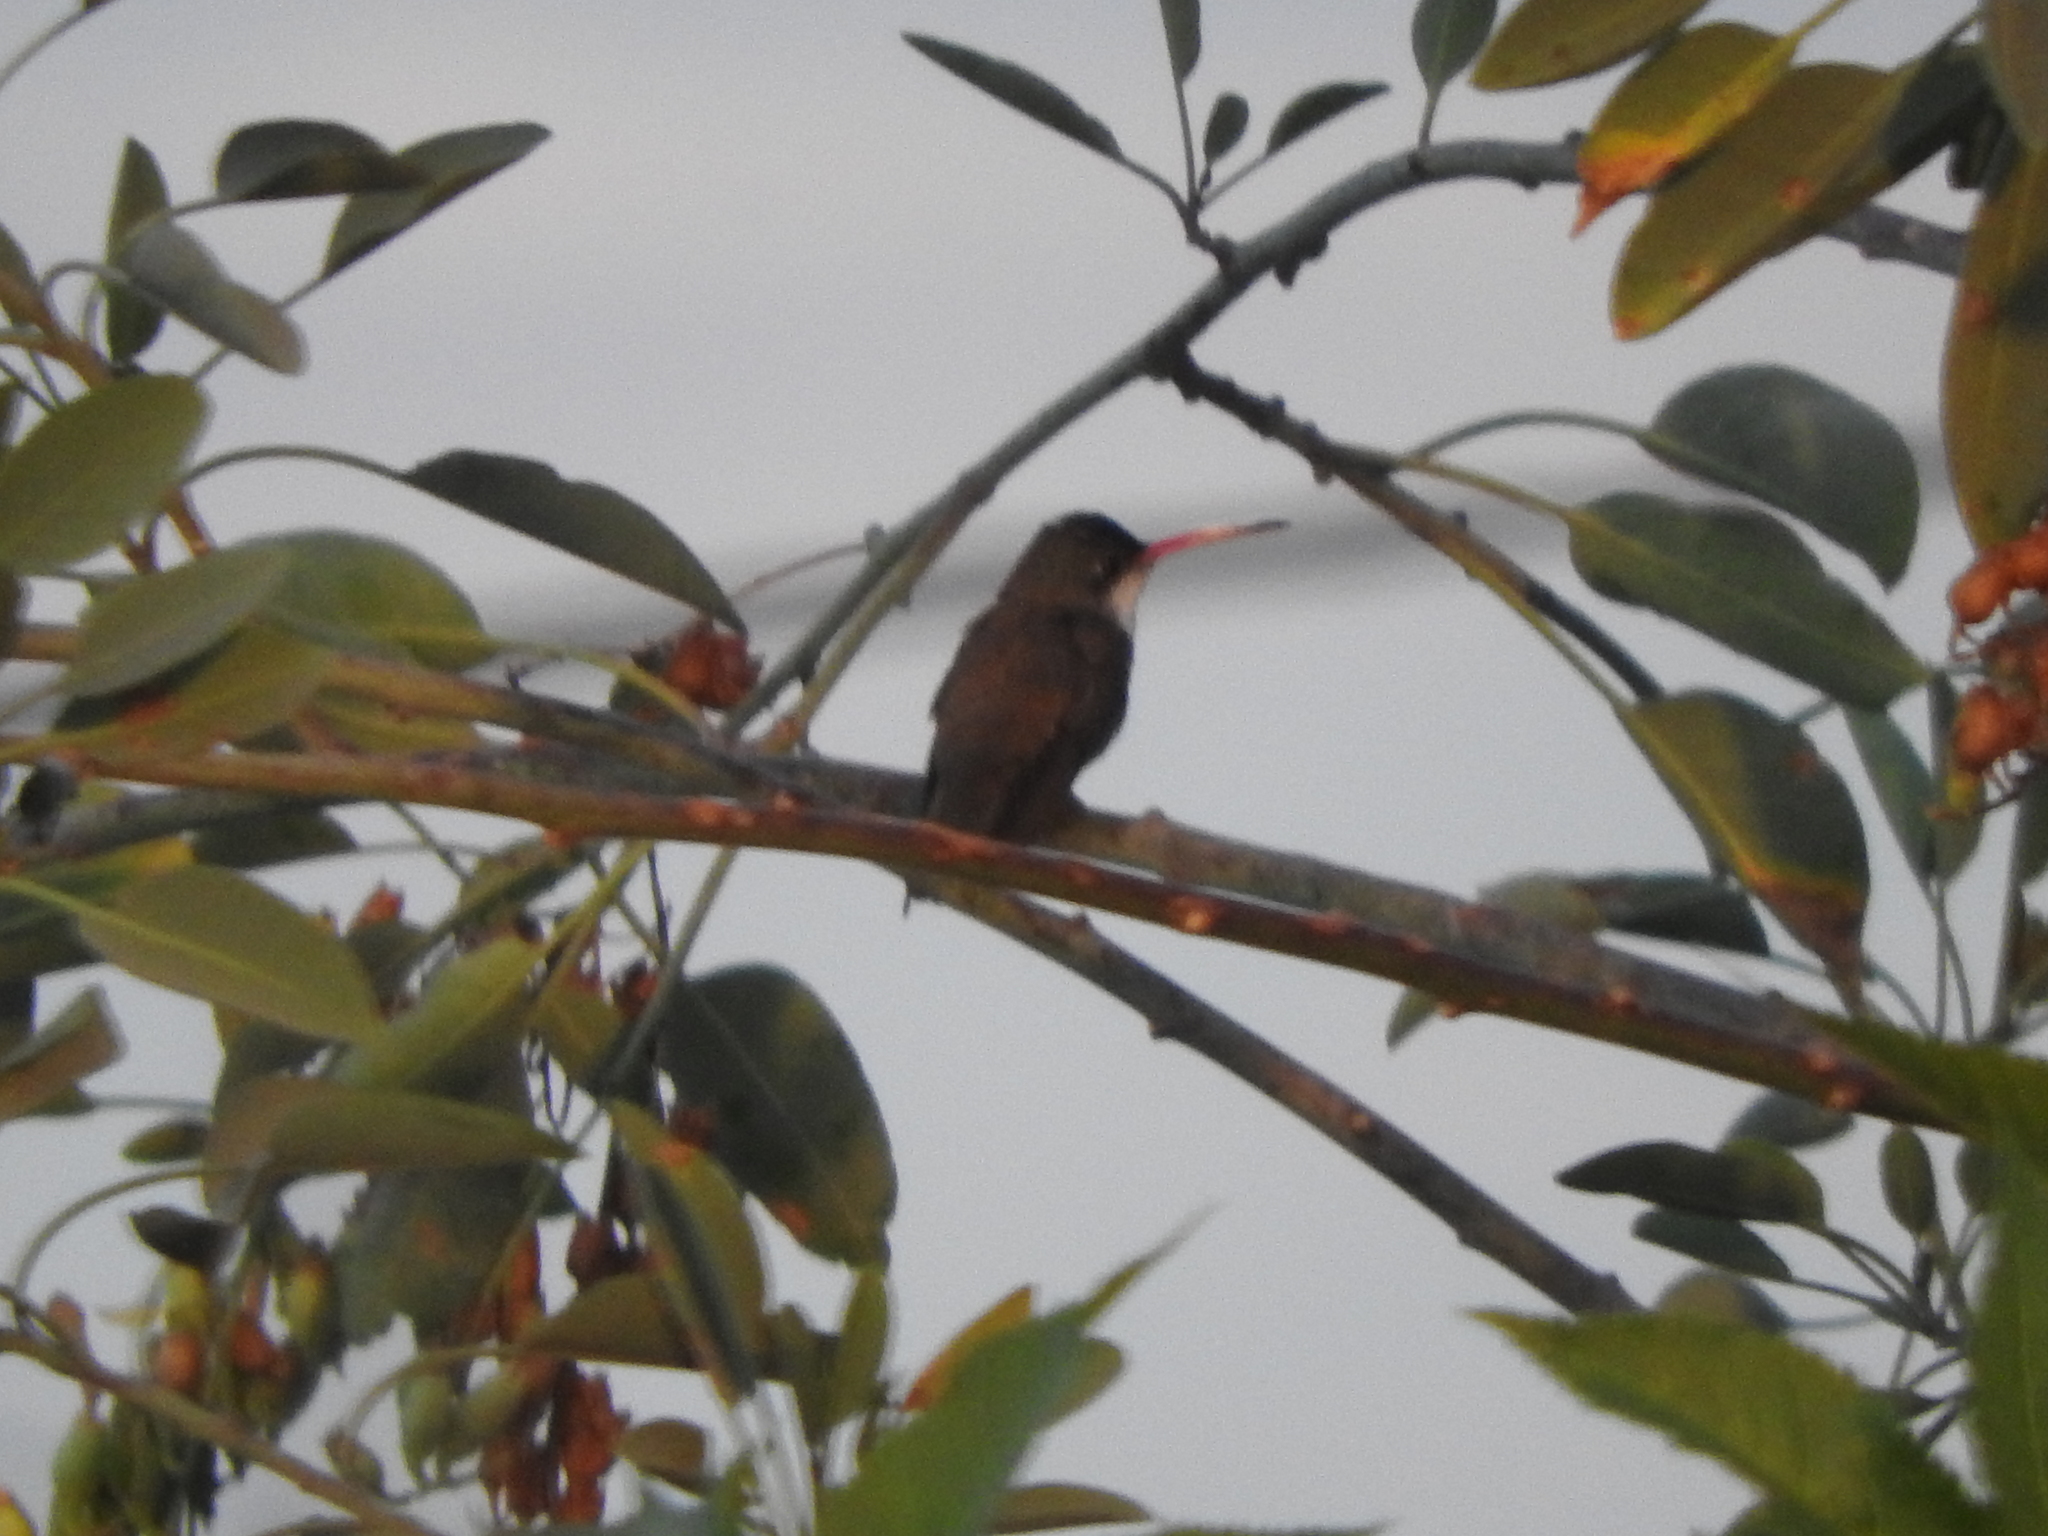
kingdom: Animalia
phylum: Chordata
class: Aves
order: Apodiformes
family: Trochilidae
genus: Leucolia
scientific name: Leucolia violiceps
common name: Violet-crowned hummingbird
